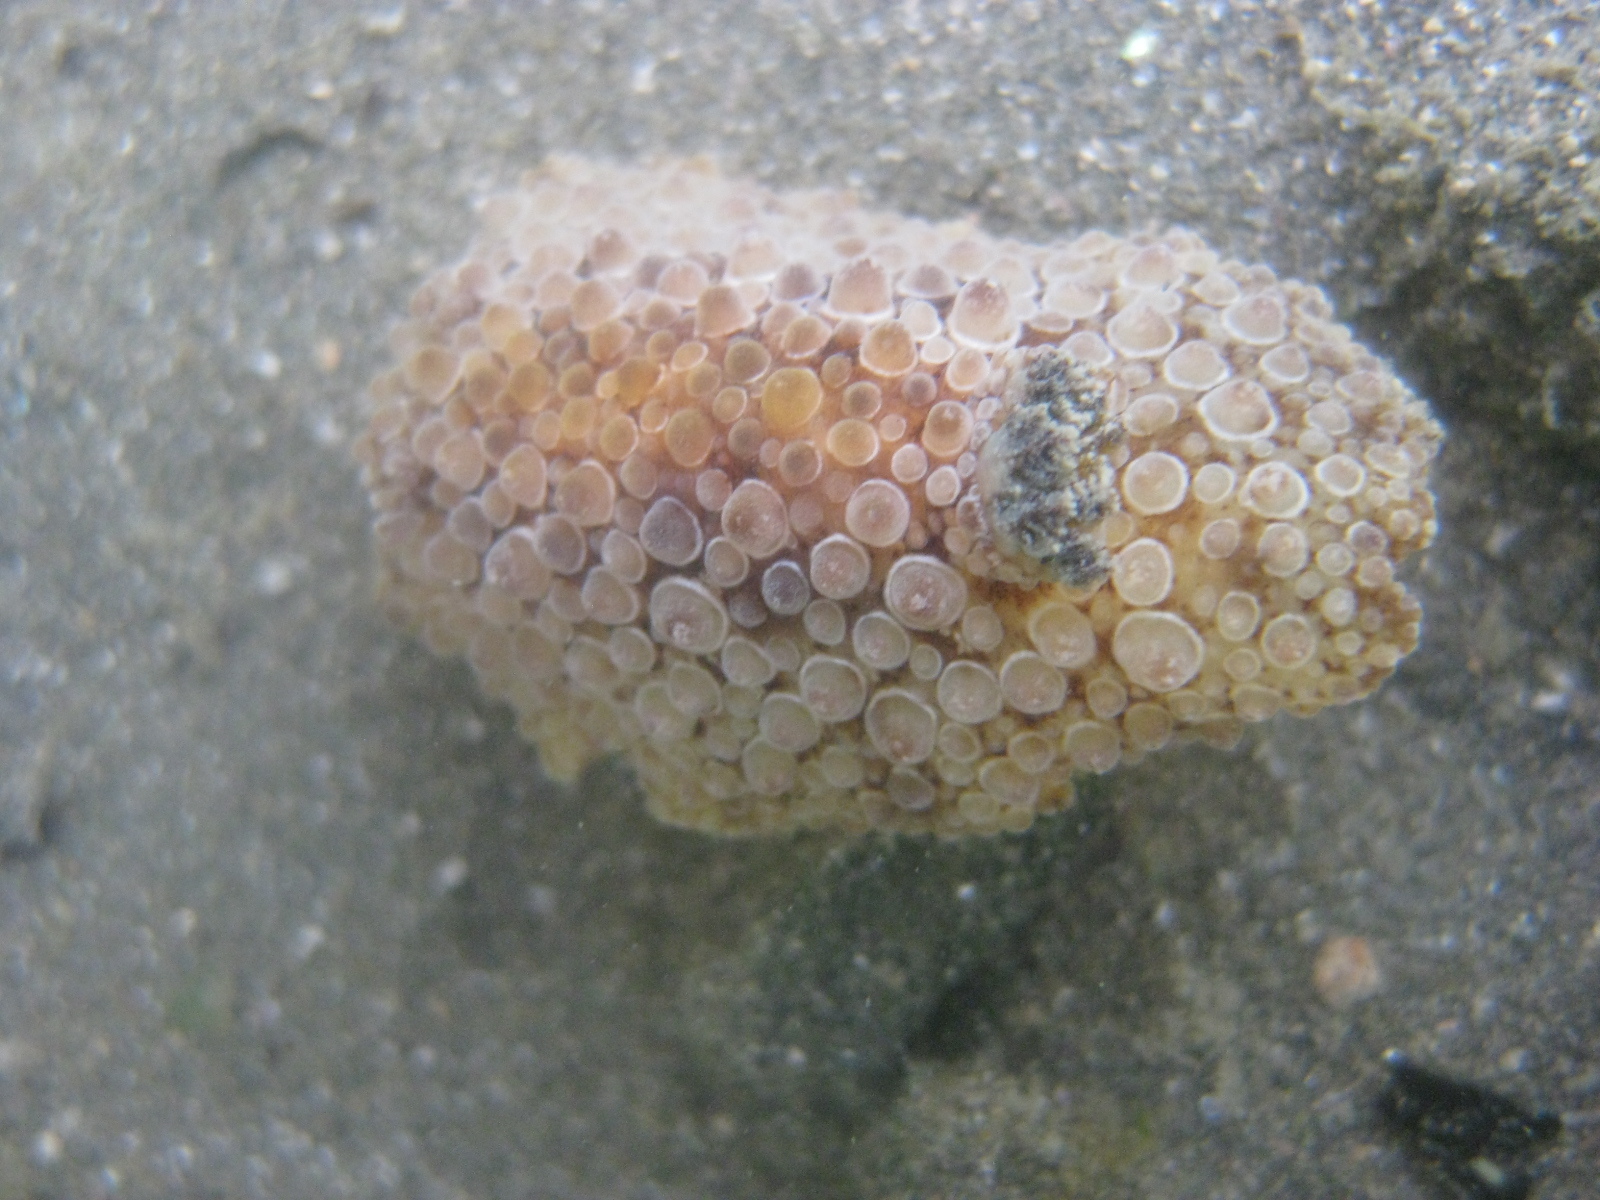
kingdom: Animalia
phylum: Mollusca
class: Gastropoda
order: Nudibranchia
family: Discodorididae
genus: Carminodoris
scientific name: Carminodoris nodulosa
